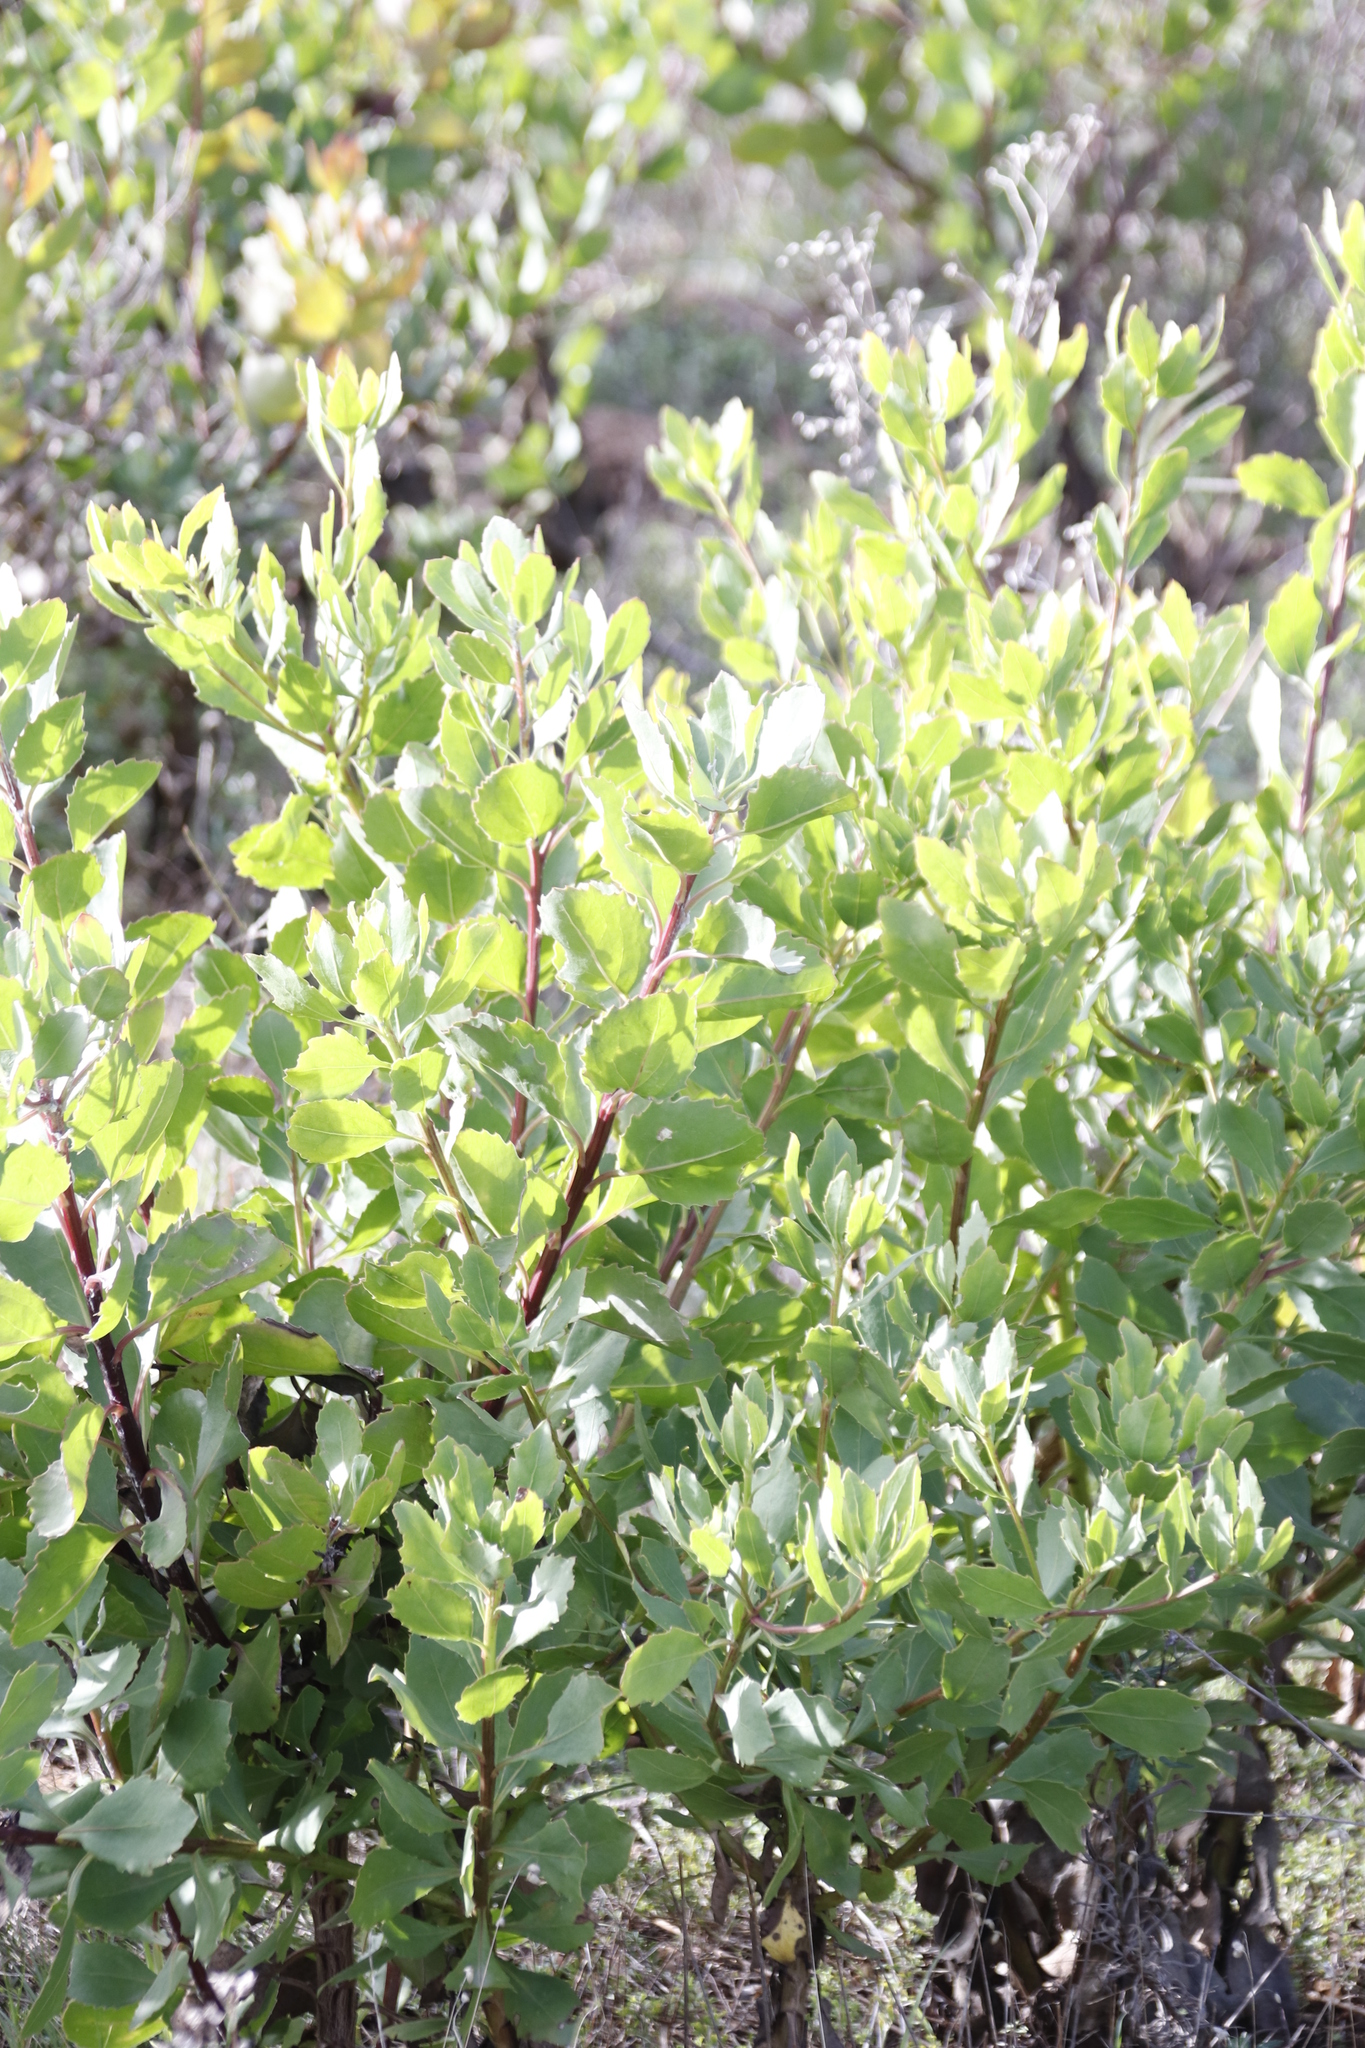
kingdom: Plantae
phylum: Tracheophyta
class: Magnoliopsida
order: Asterales
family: Asteraceae
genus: Osteospermum
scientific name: Osteospermum moniliferum
